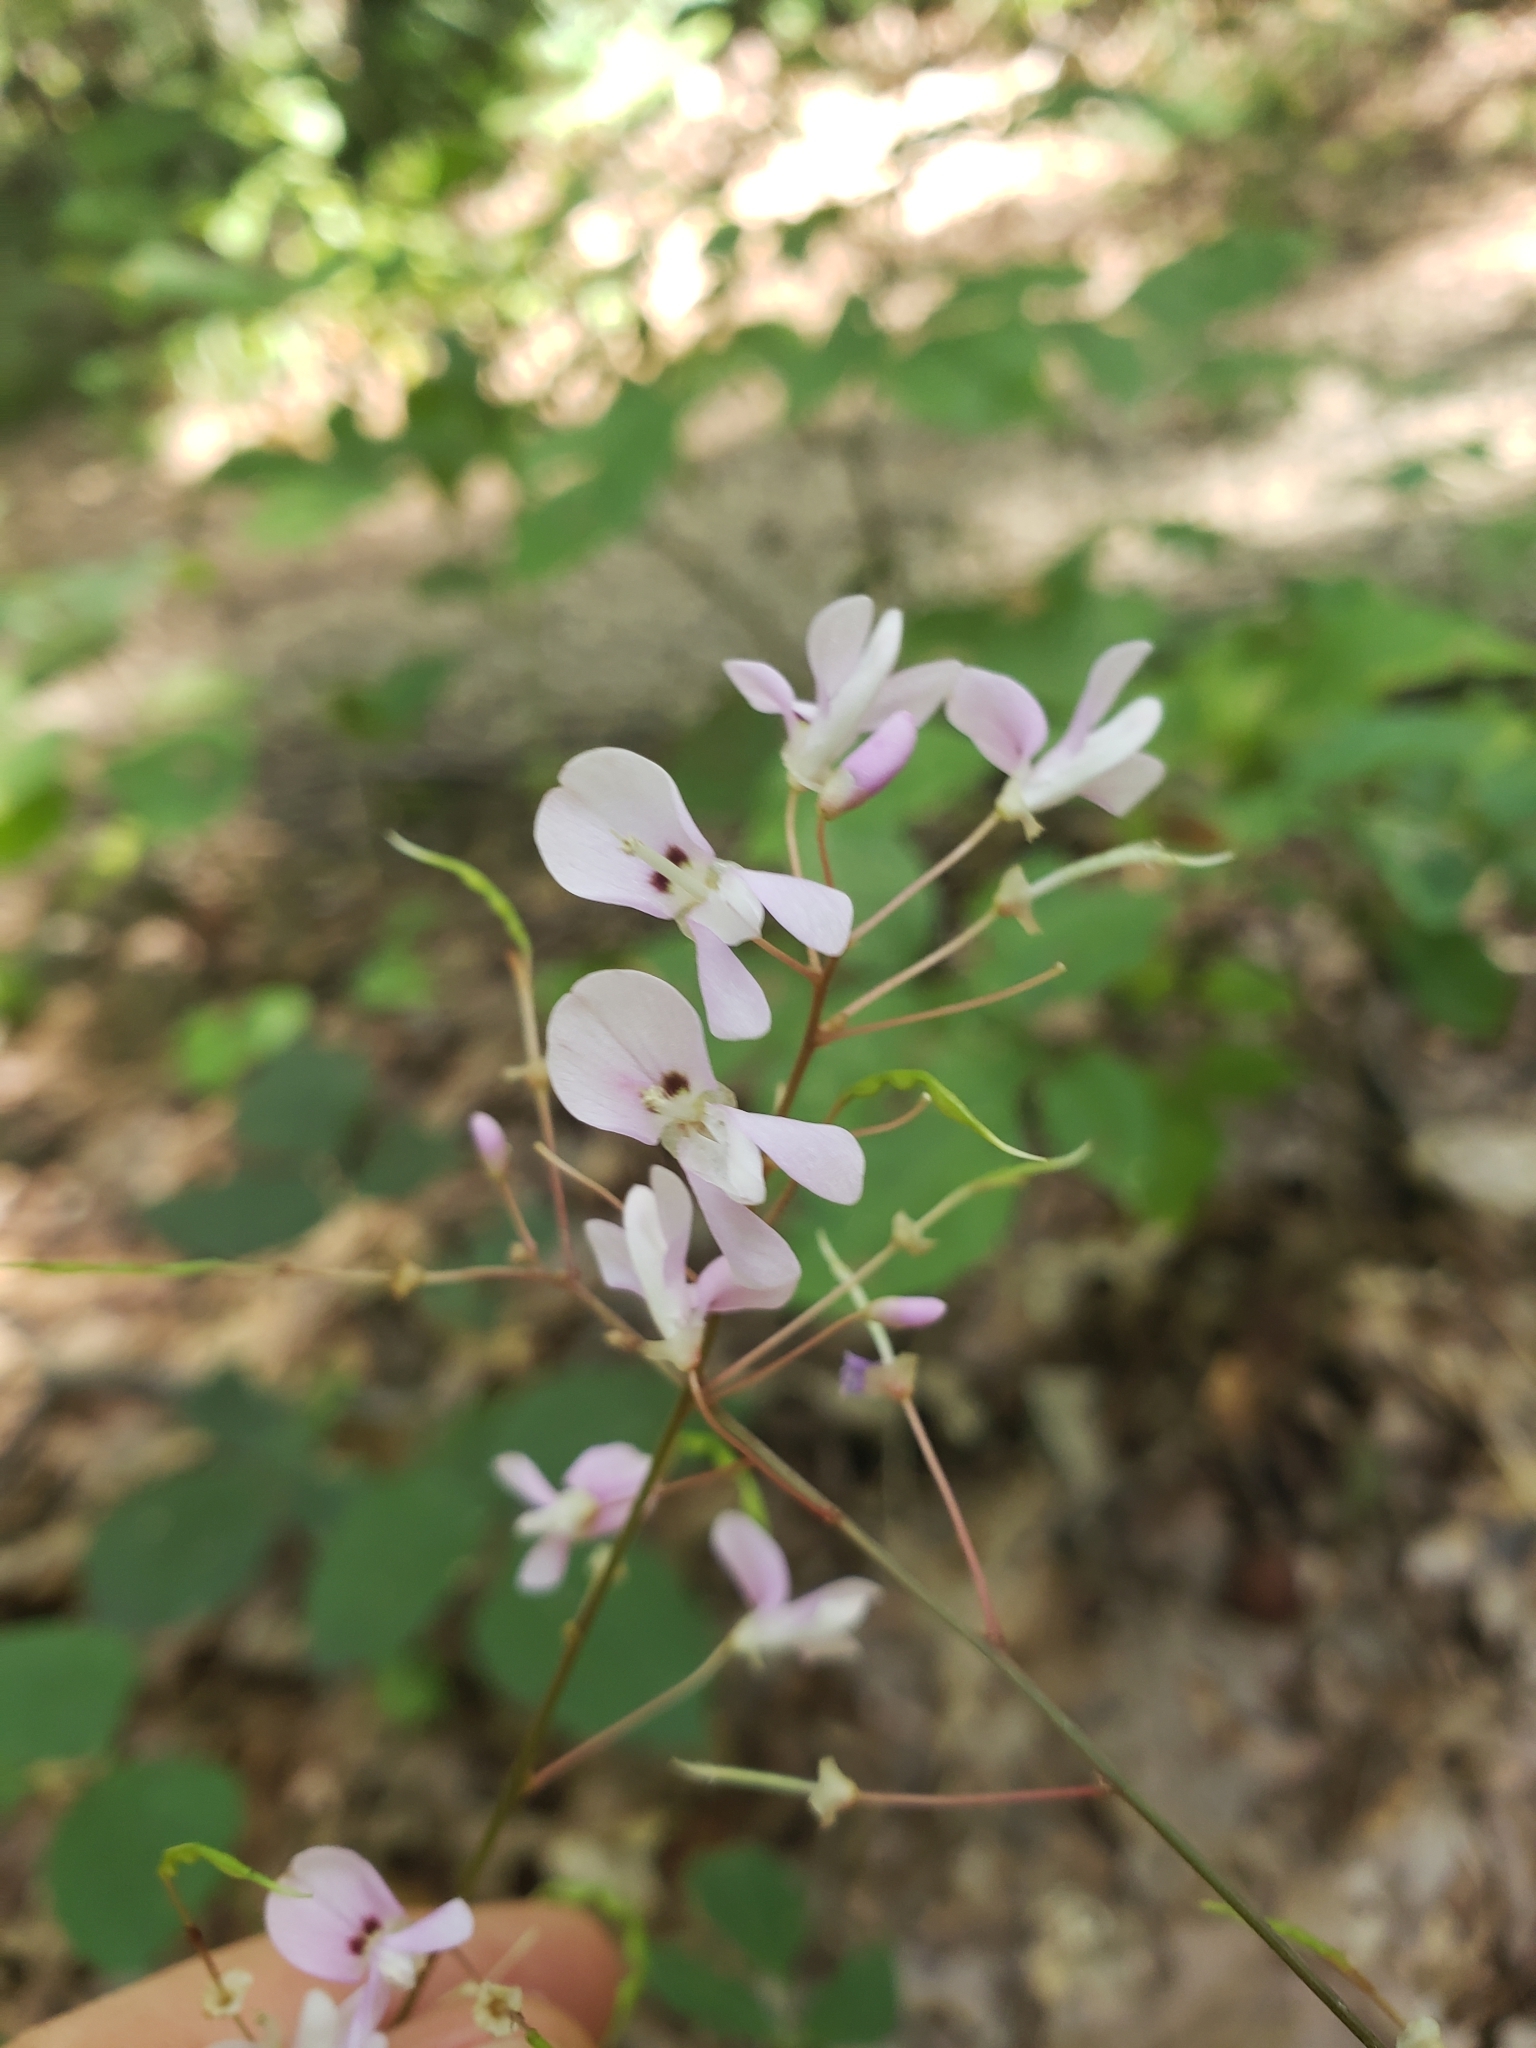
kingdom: Plantae
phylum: Tracheophyta
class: Magnoliopsida
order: Fabales
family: Fabaceae
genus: Hylodesmum
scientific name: Hylodesmum nudiflorum
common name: Bare-stemmed tick-trefoil
